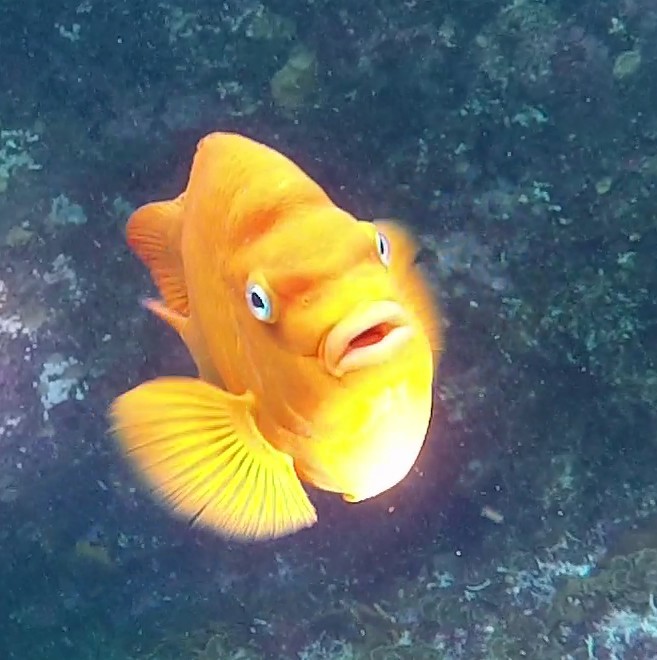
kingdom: Animalia
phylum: Chordata
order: Perciformes
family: Pomacentridae
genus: Hypsypops
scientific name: Hypsypops rubicundus
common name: Garibaldi
